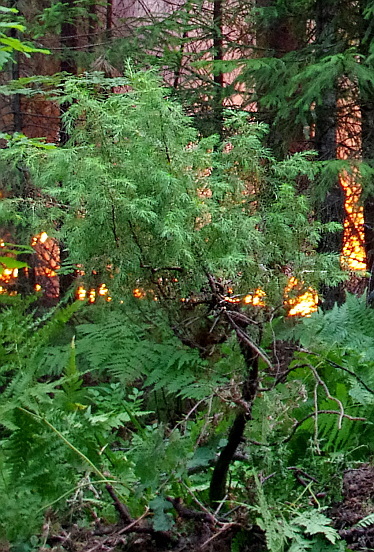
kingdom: Plantae
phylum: Tracheophyta
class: Pinopsida
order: Pinales
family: Cupressaceae
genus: Juniperus
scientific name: Juniperus communis
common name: Common juniper
